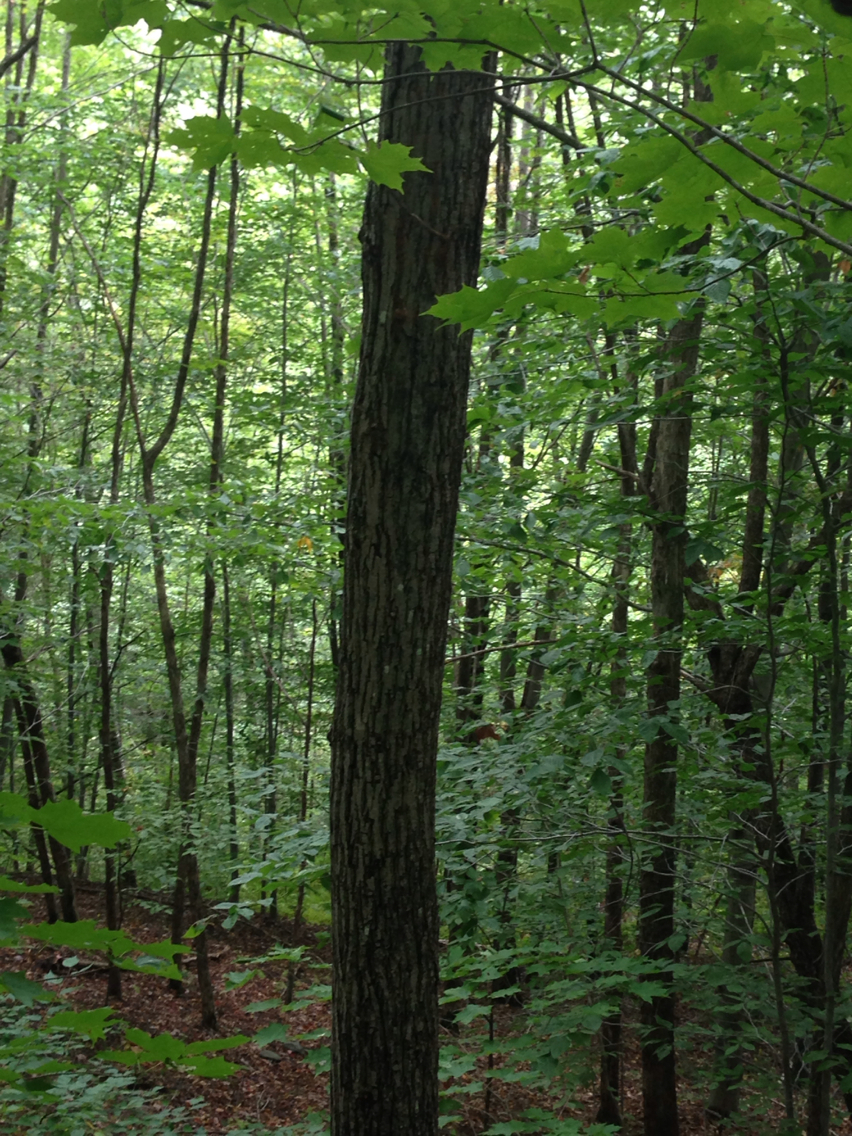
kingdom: Plantae
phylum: Tracheophyta
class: Magnoliopsida
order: Fagales
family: Juglandaceae
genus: Juglans
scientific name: Juglans cinerea
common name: Butternut
